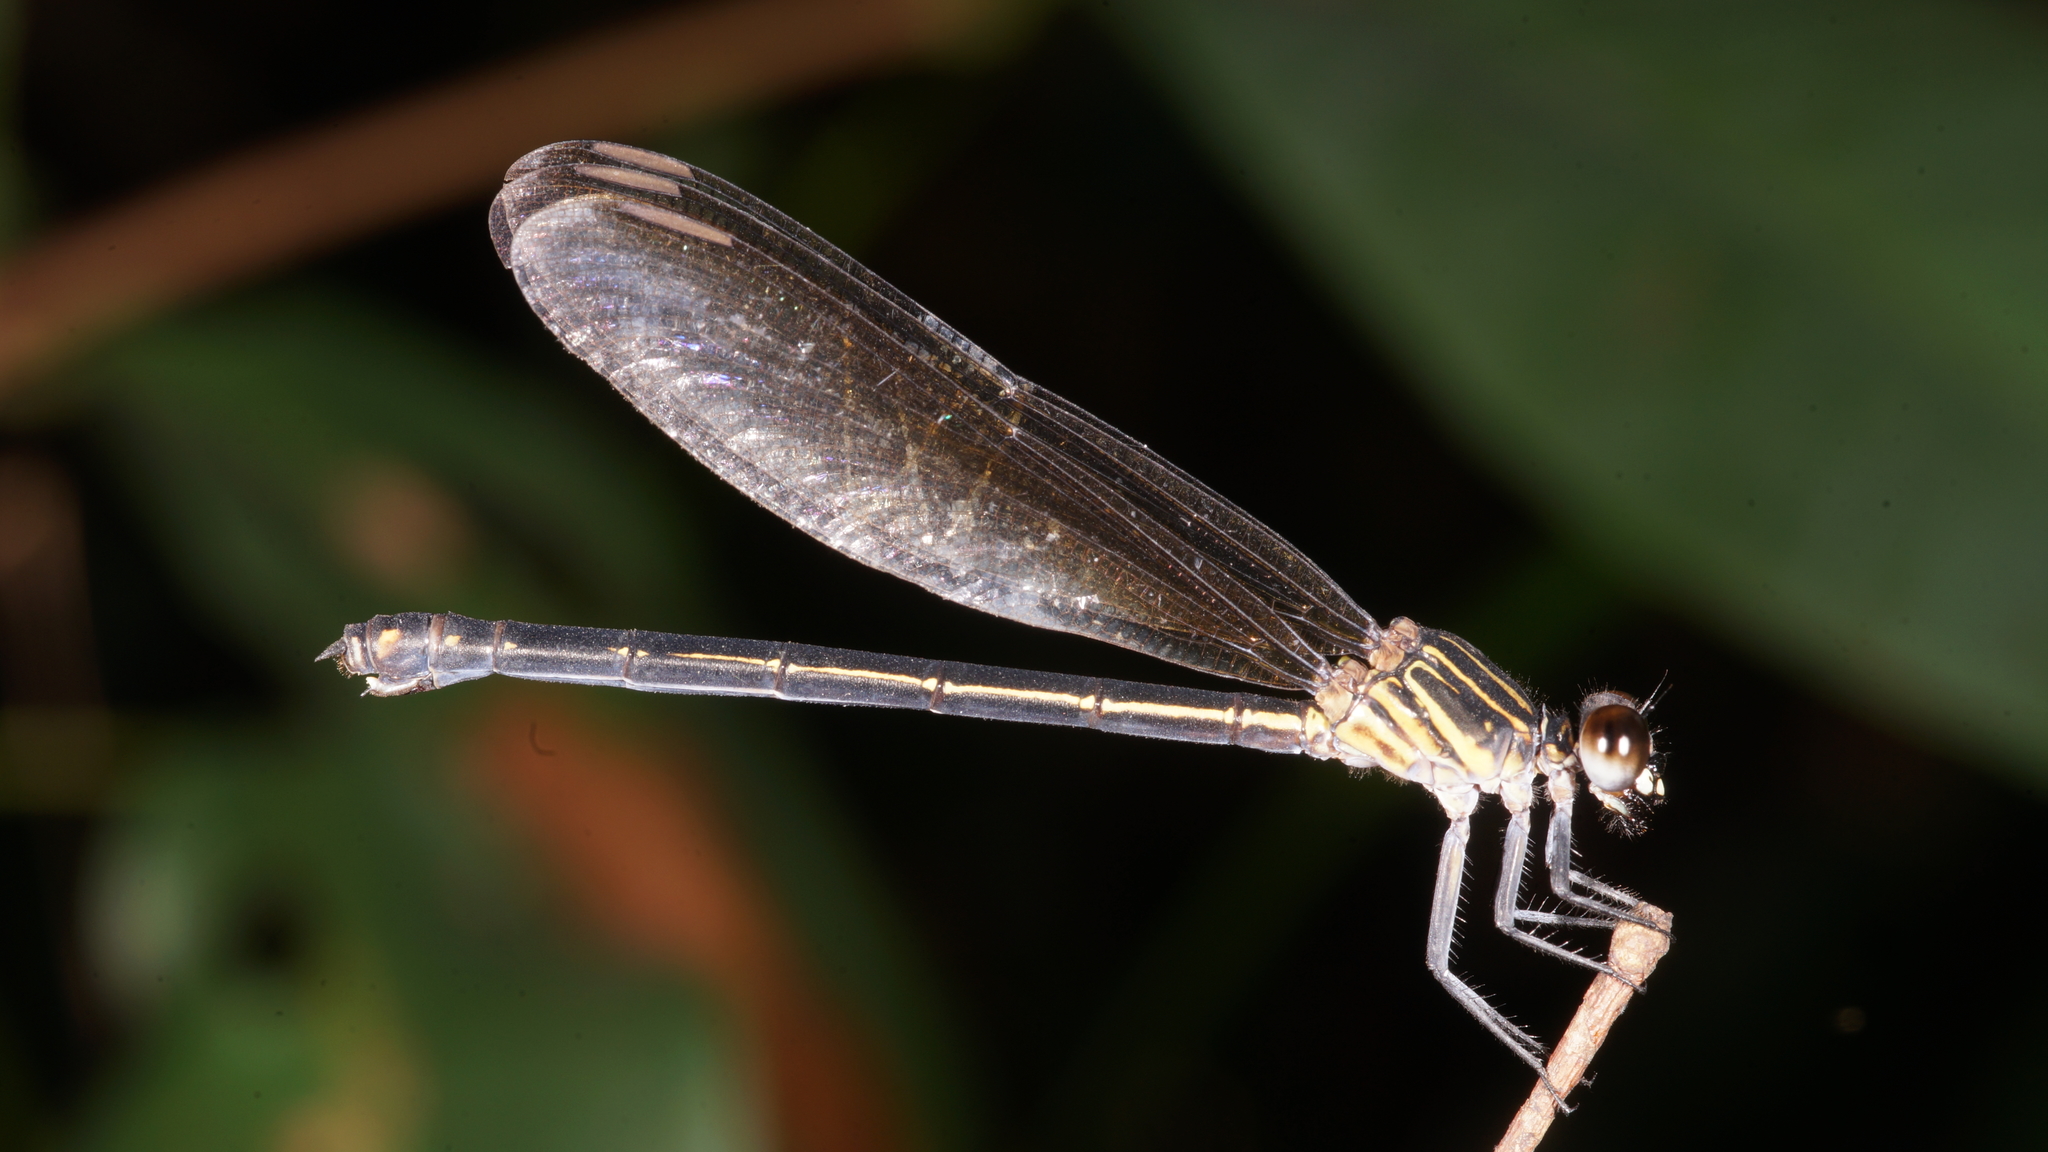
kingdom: Animalia
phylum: Arthropoda
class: Insecta
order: Odonata
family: Euphaeidae
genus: Euphaea
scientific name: Euphaea masoni
